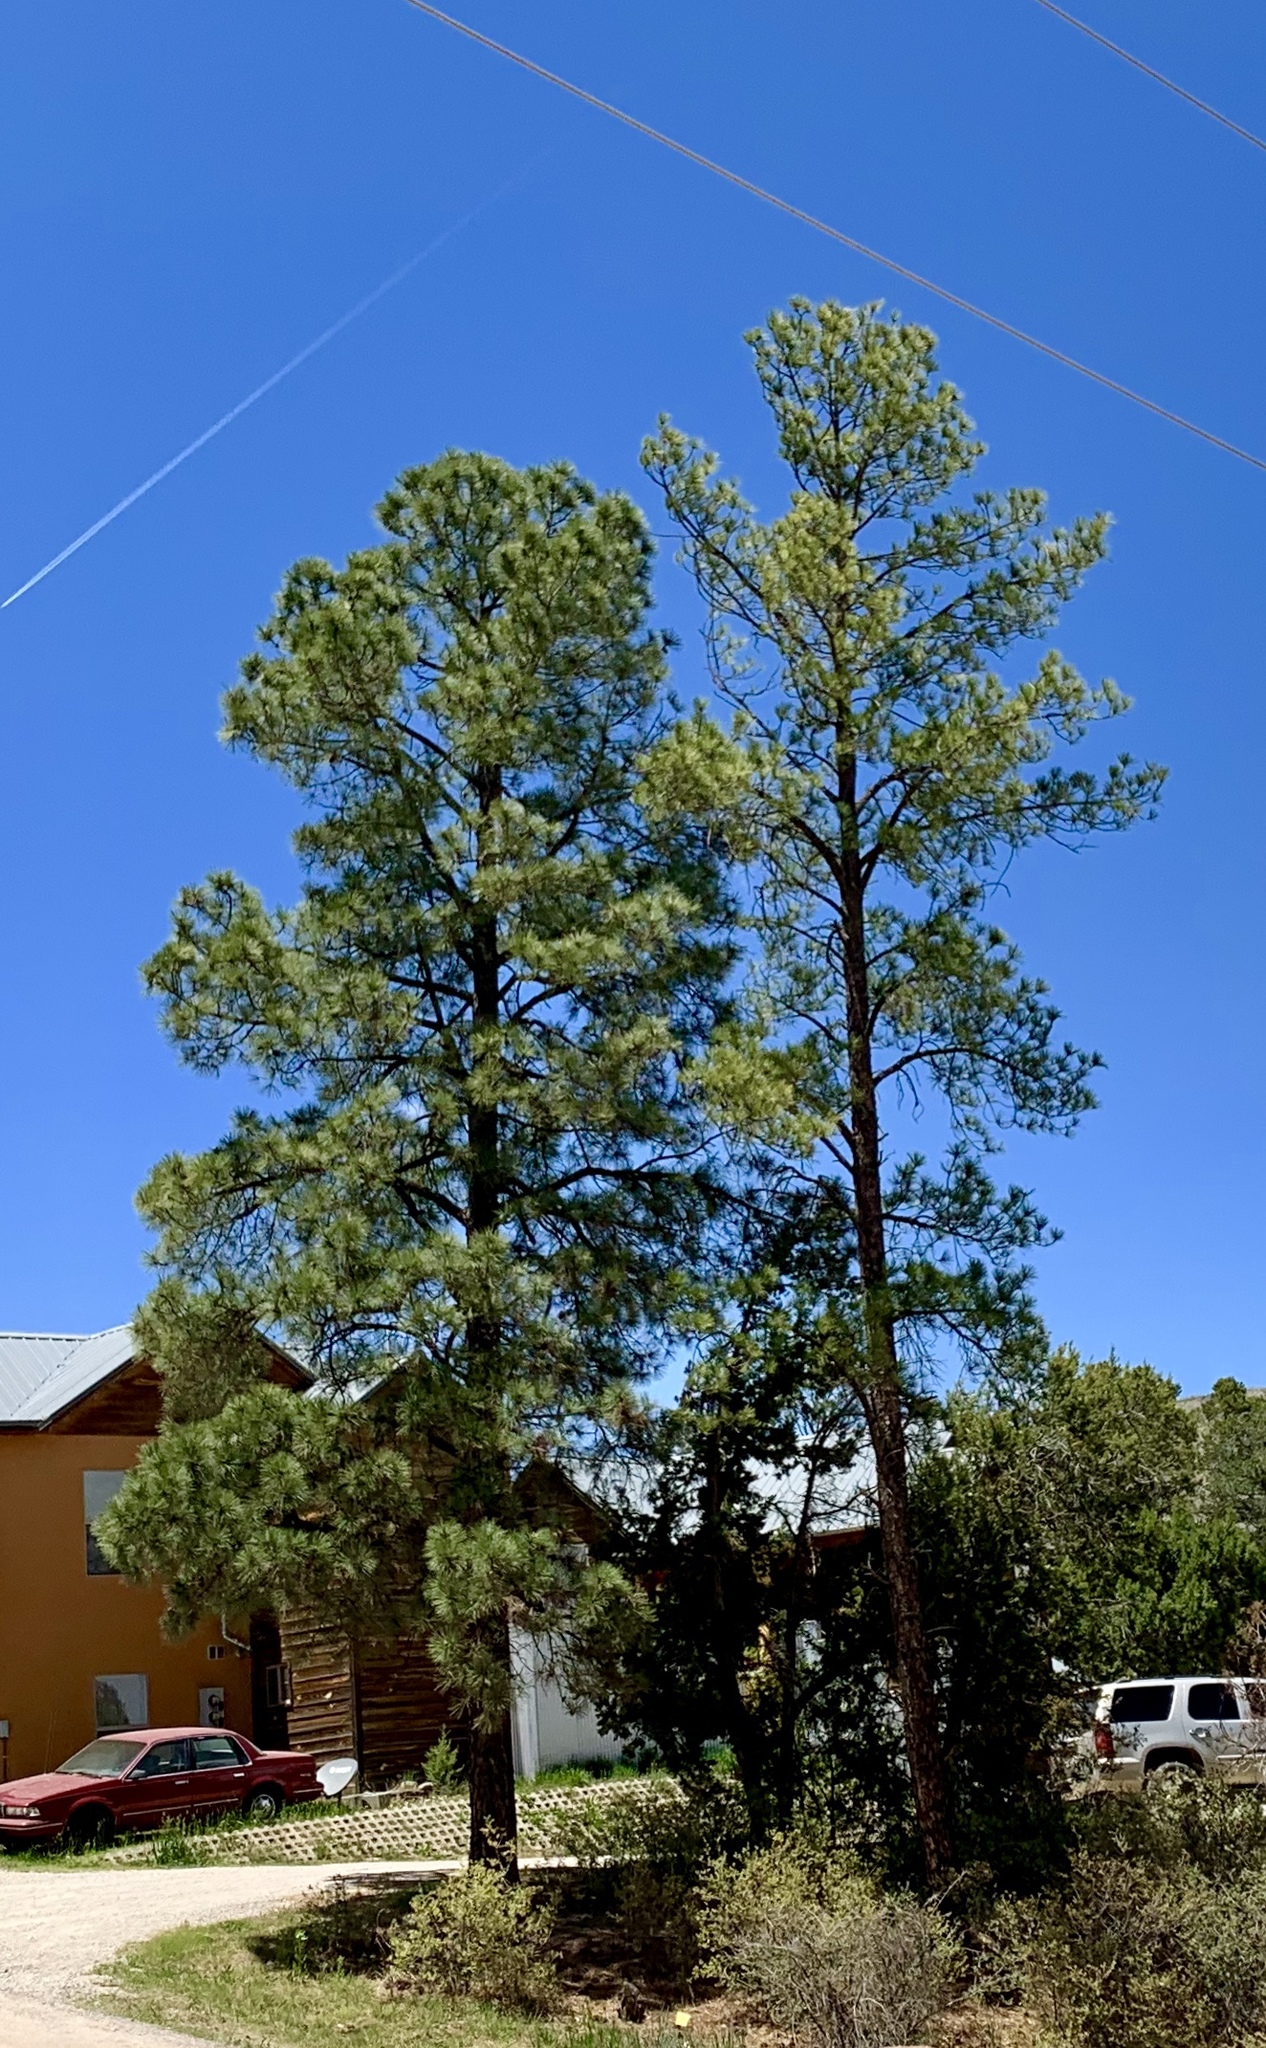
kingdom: Plantae
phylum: Tracheophyta
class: Pinopsida
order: Pinales
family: Pinaceae
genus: Pinus
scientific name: Pinus ponderosa
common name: Western yellow-pine
